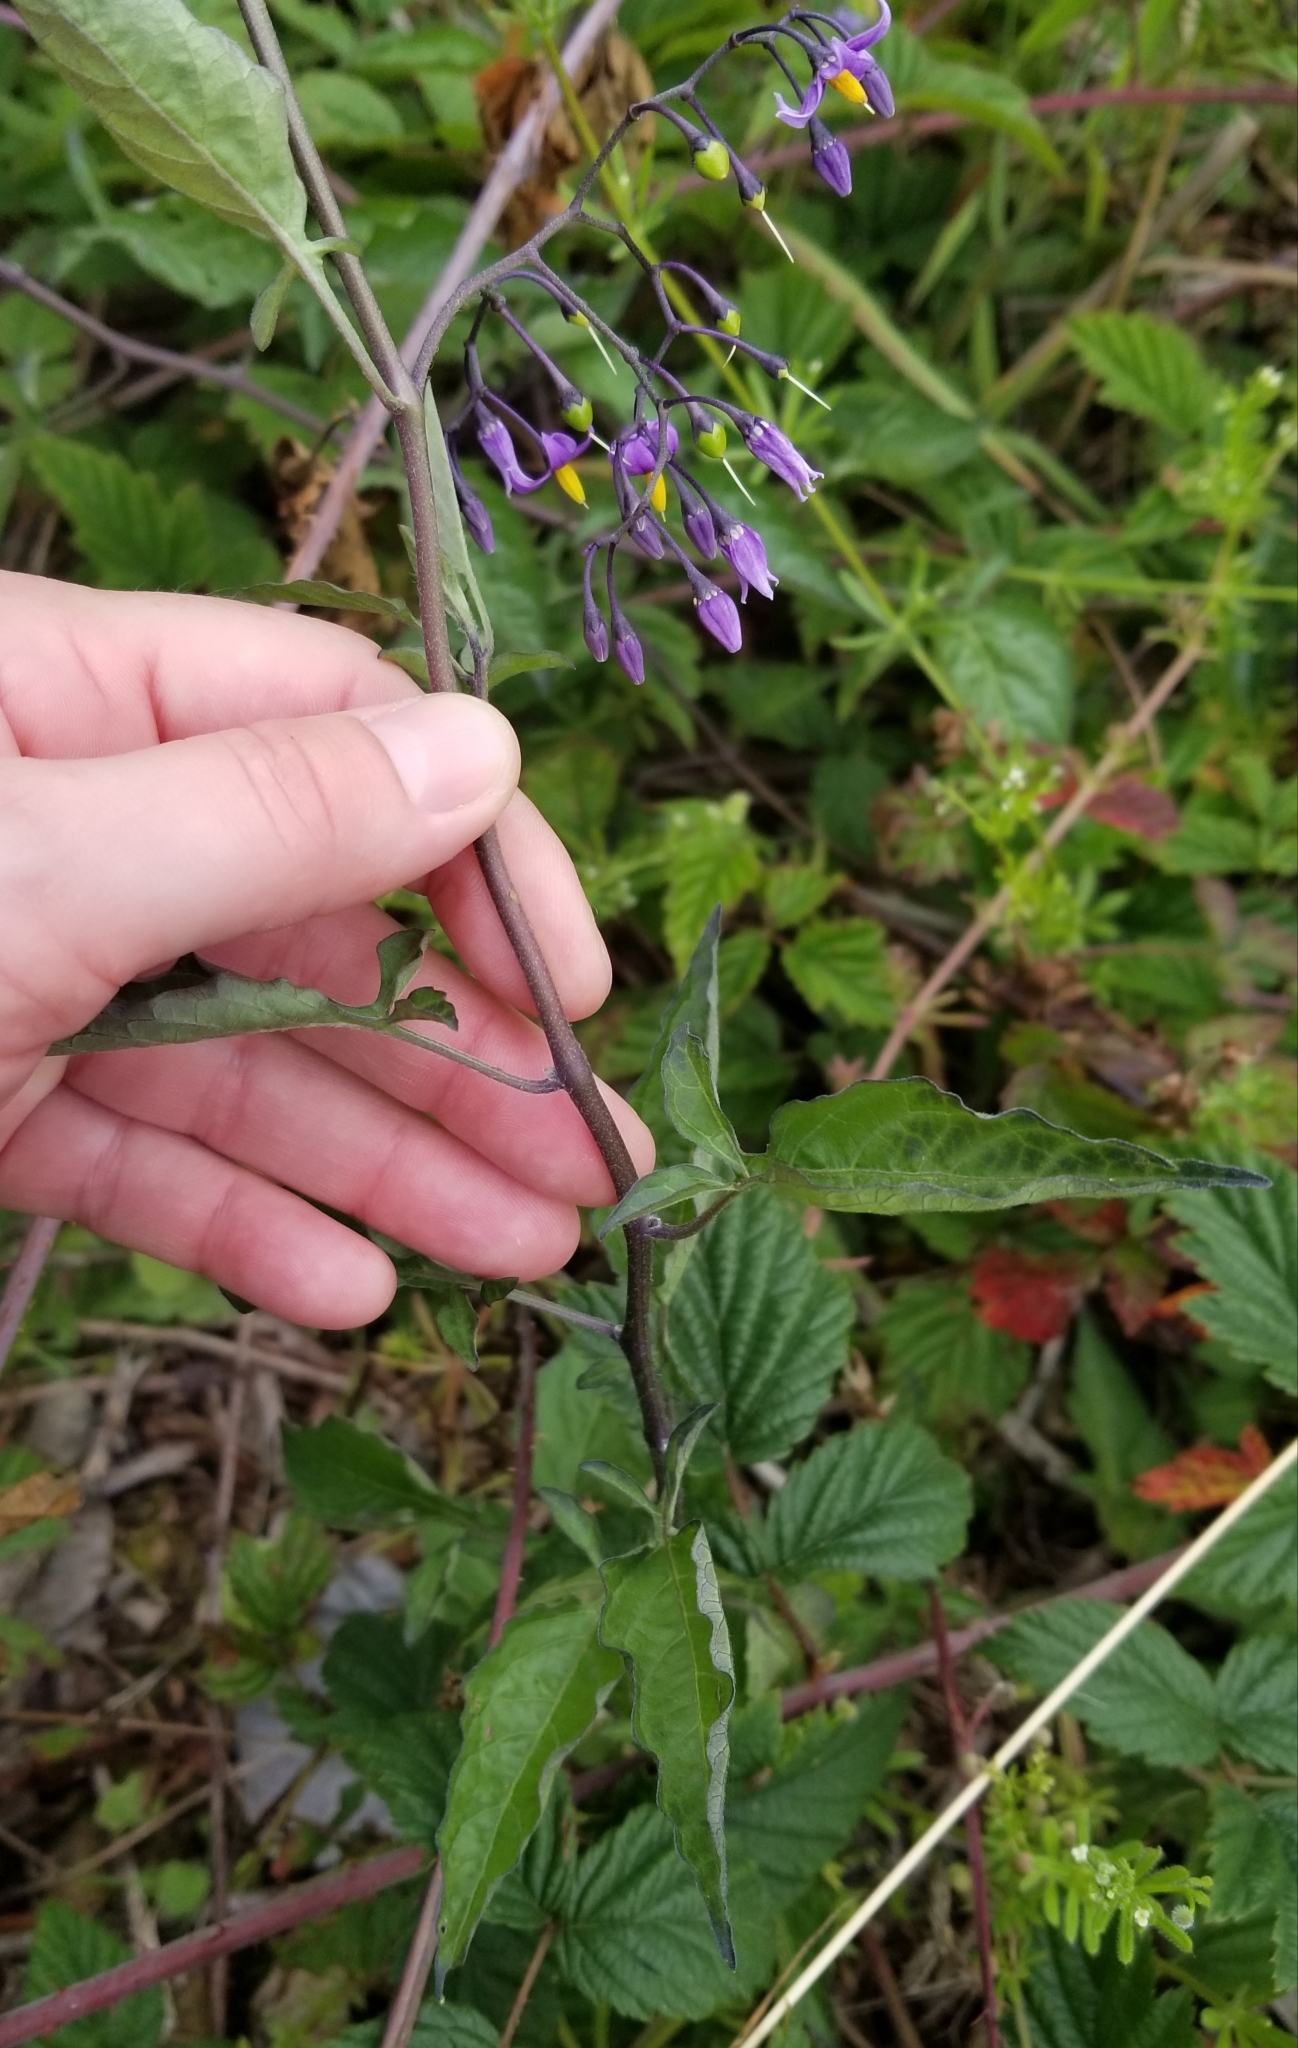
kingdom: Plantae
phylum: Tracheophyta
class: Magnoliopsida
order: Solanales
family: Solanaceae
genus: Solanum
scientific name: Solanum dulcamara
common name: Climbing nightshade
